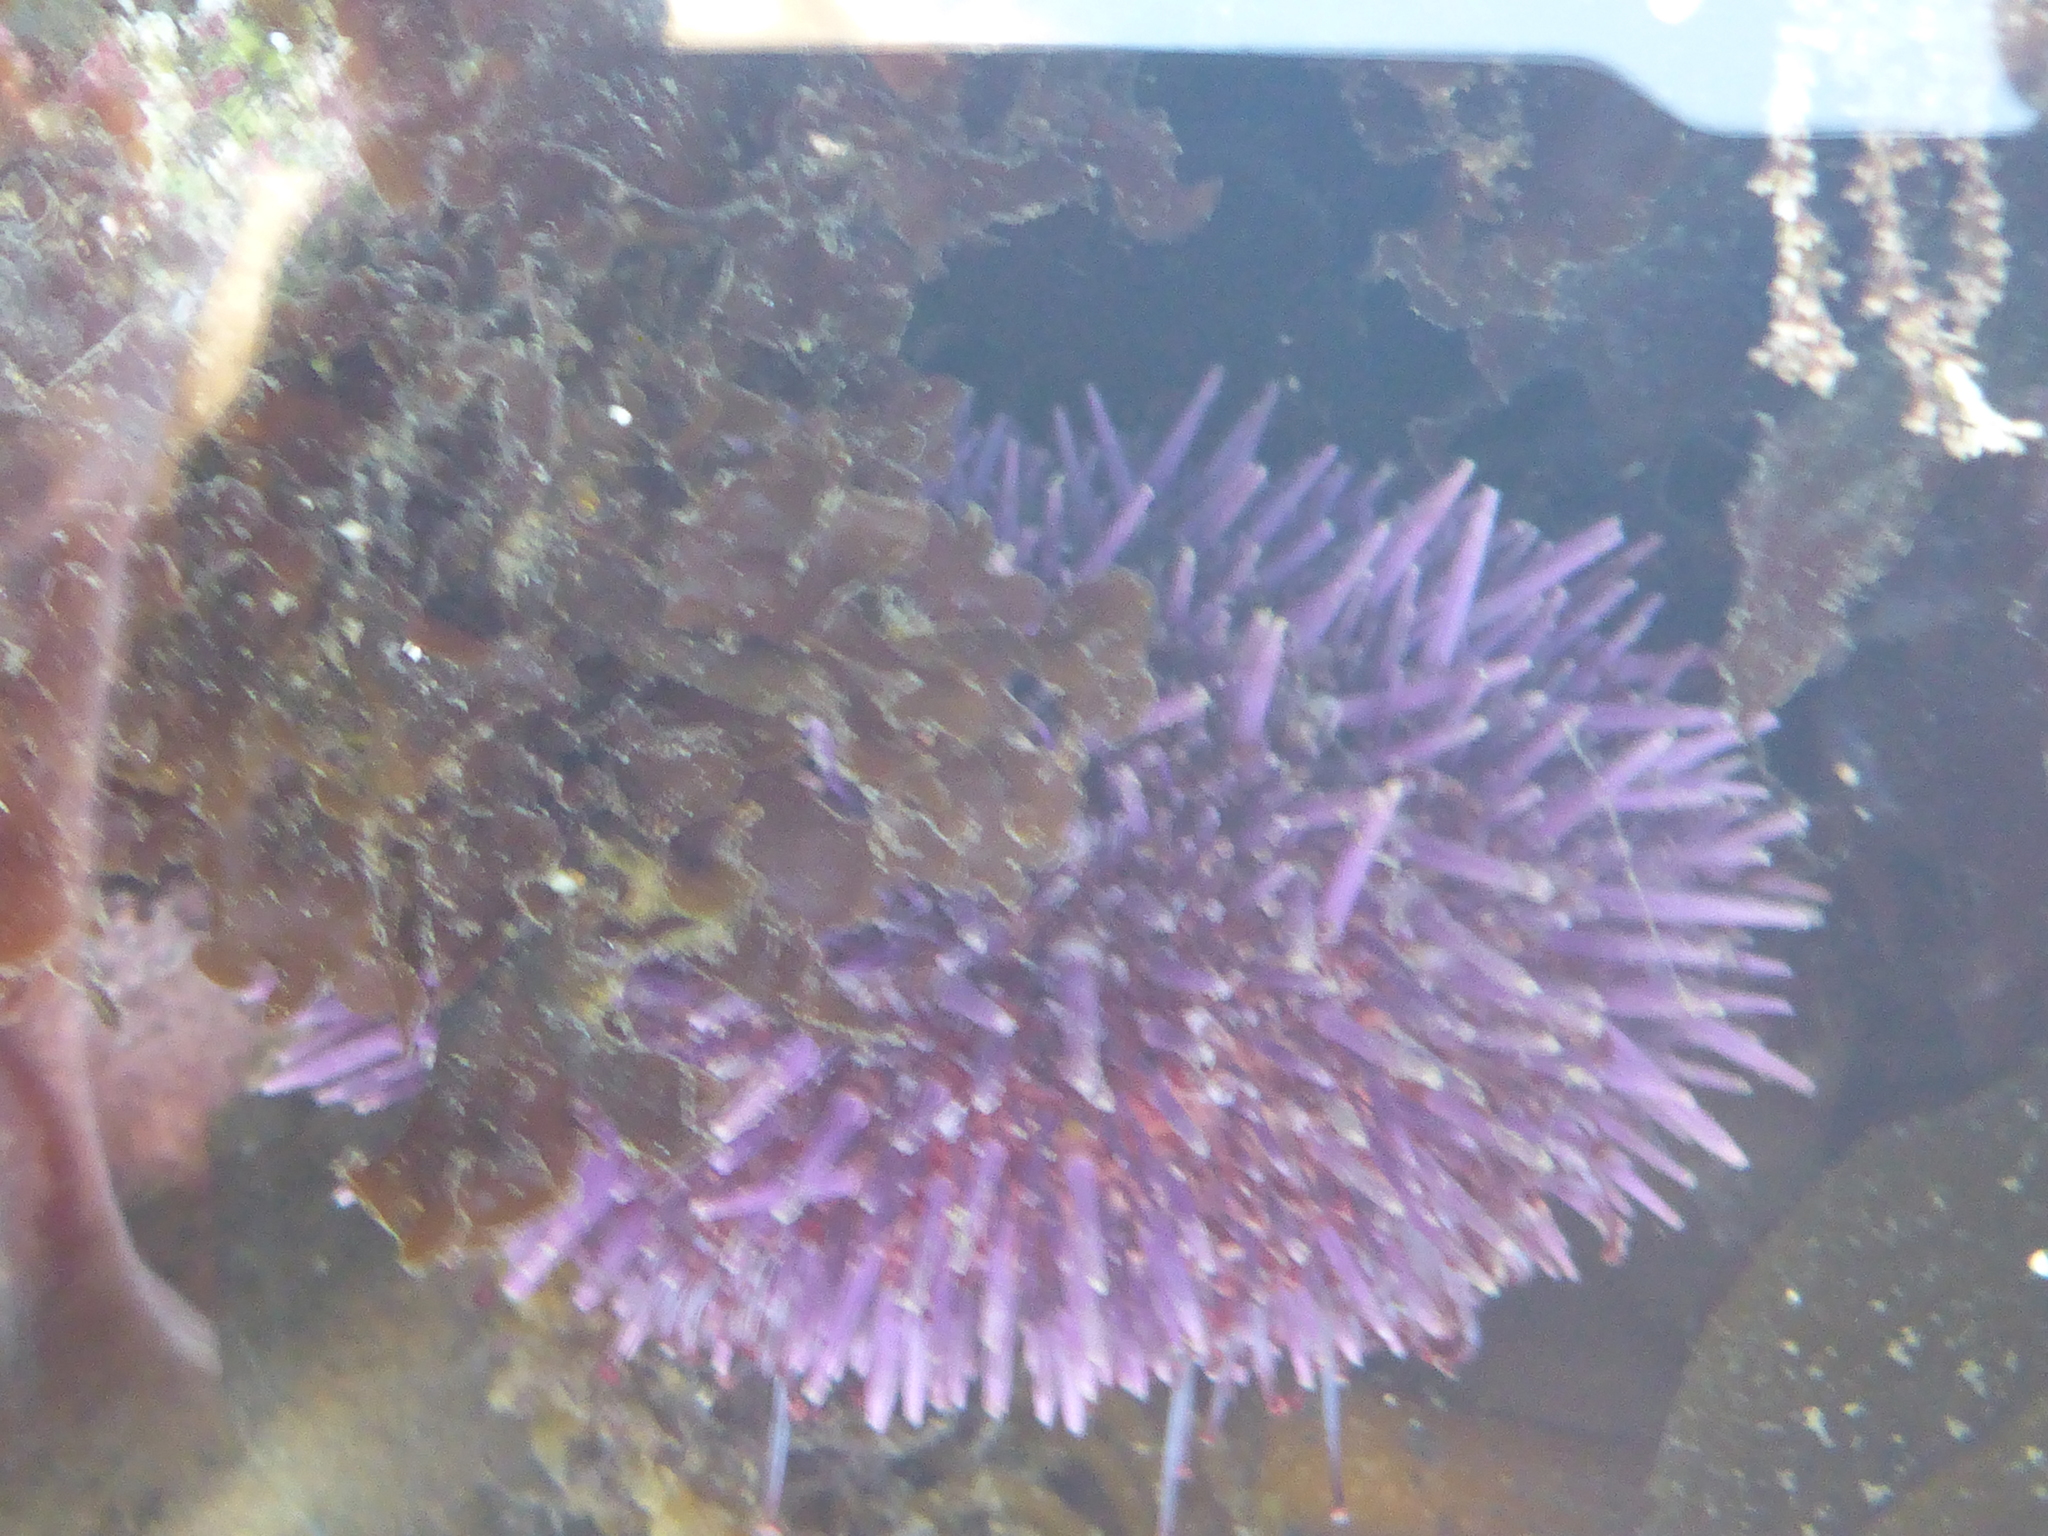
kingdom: Animalia
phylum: Echinodermata
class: Echinoidea
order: Camarodonta
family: Strongylocentrotidae
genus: Strongylocentrotus
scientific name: Strongylocentrotus purpuratus
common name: Purple sea urchin
